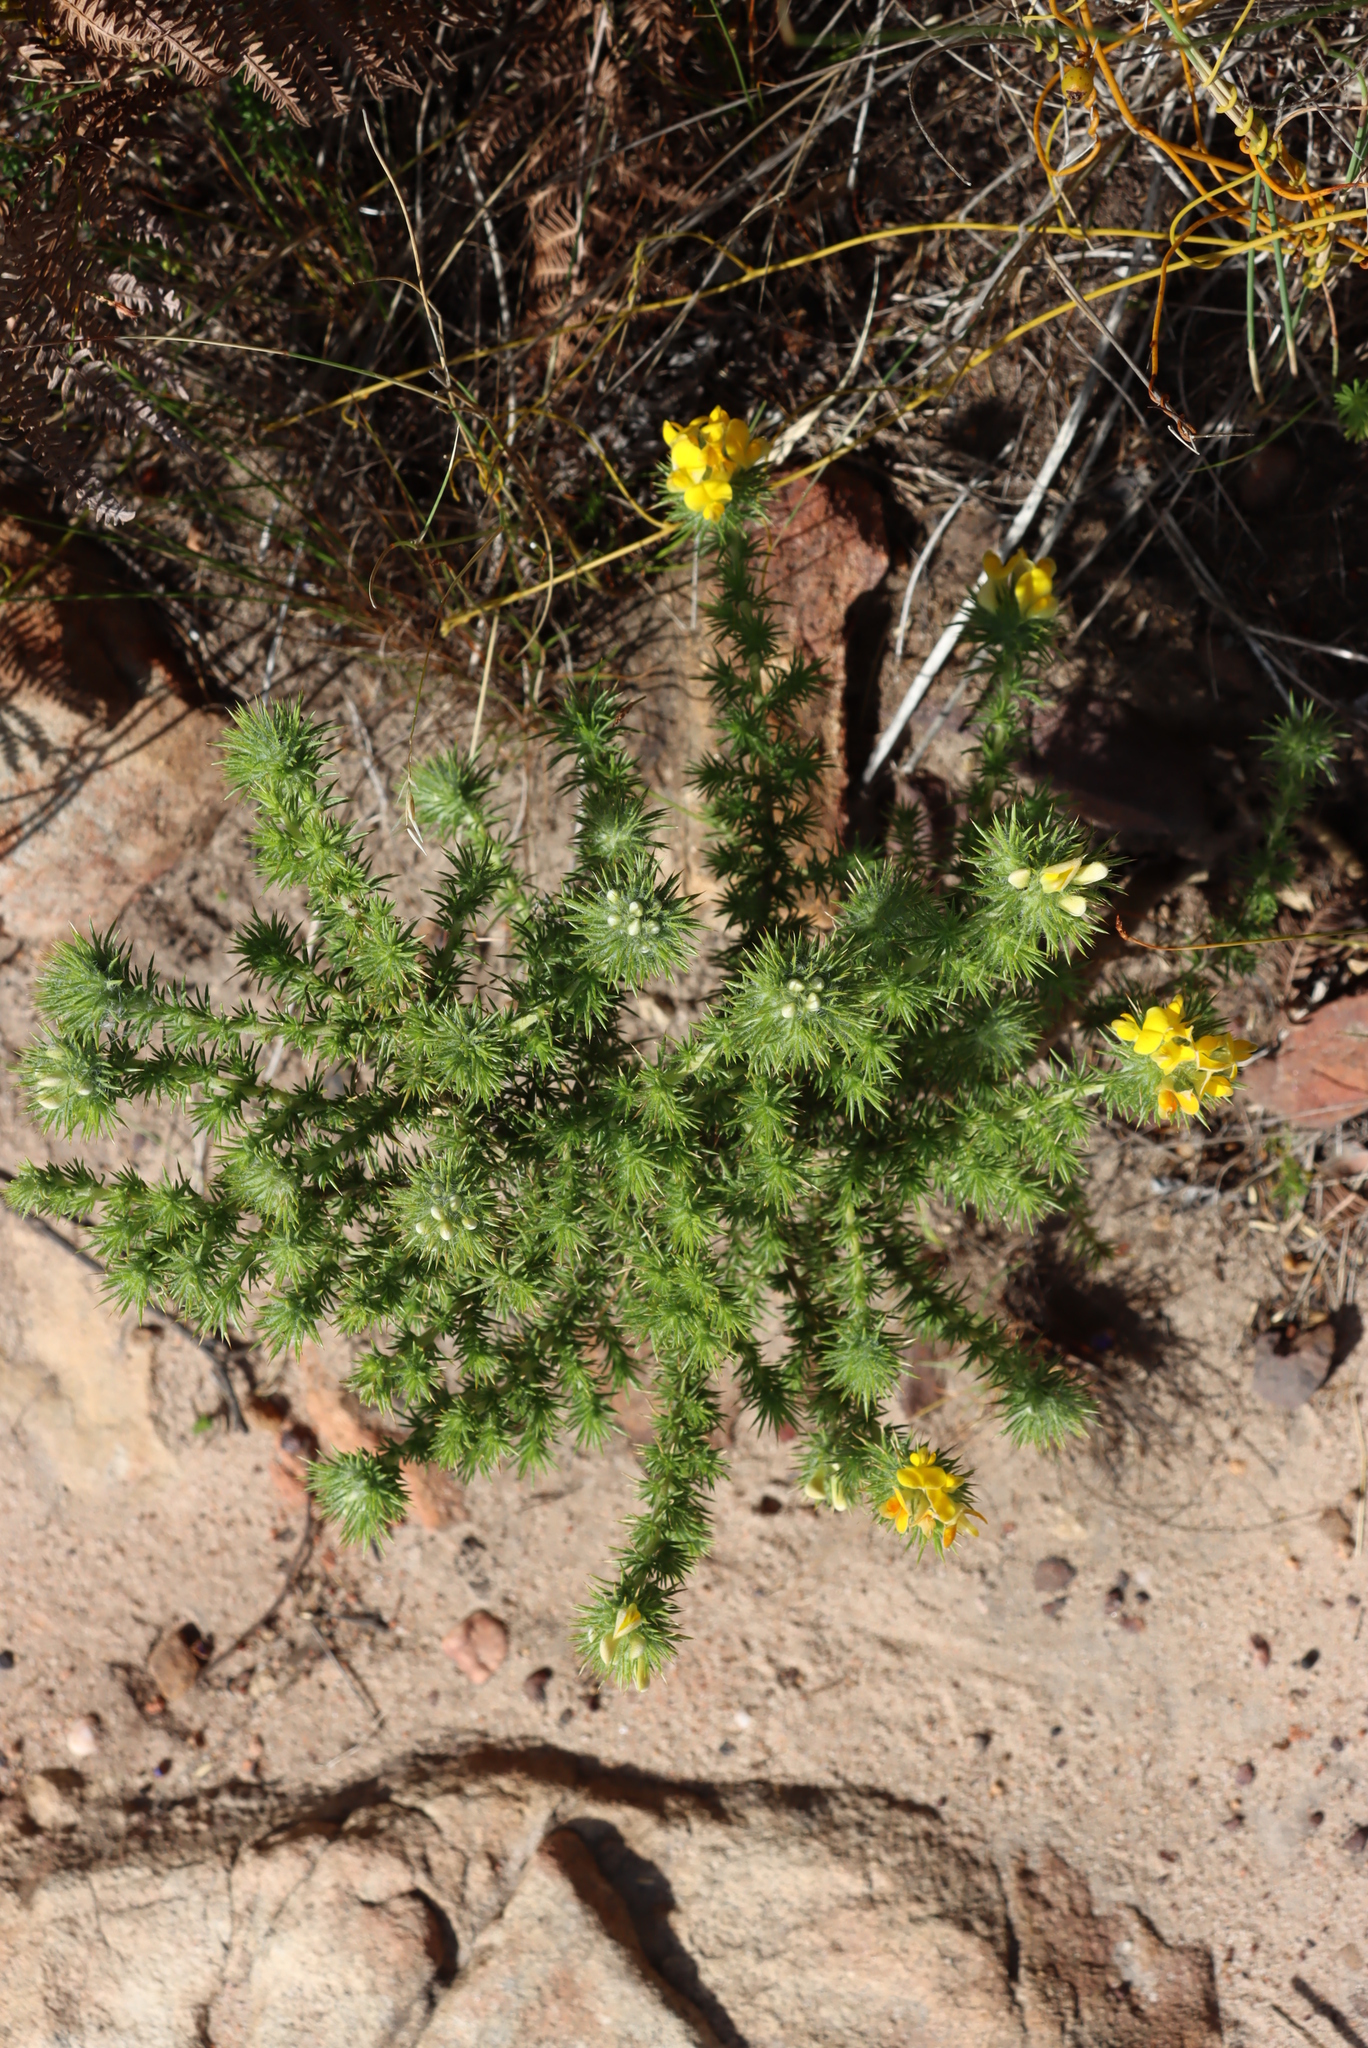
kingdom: Plantae
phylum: Tracheophyta
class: Magnoliopsida
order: Fabales
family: Fabaceae
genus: Aspalathus
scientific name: Aspalathus chenopoda
